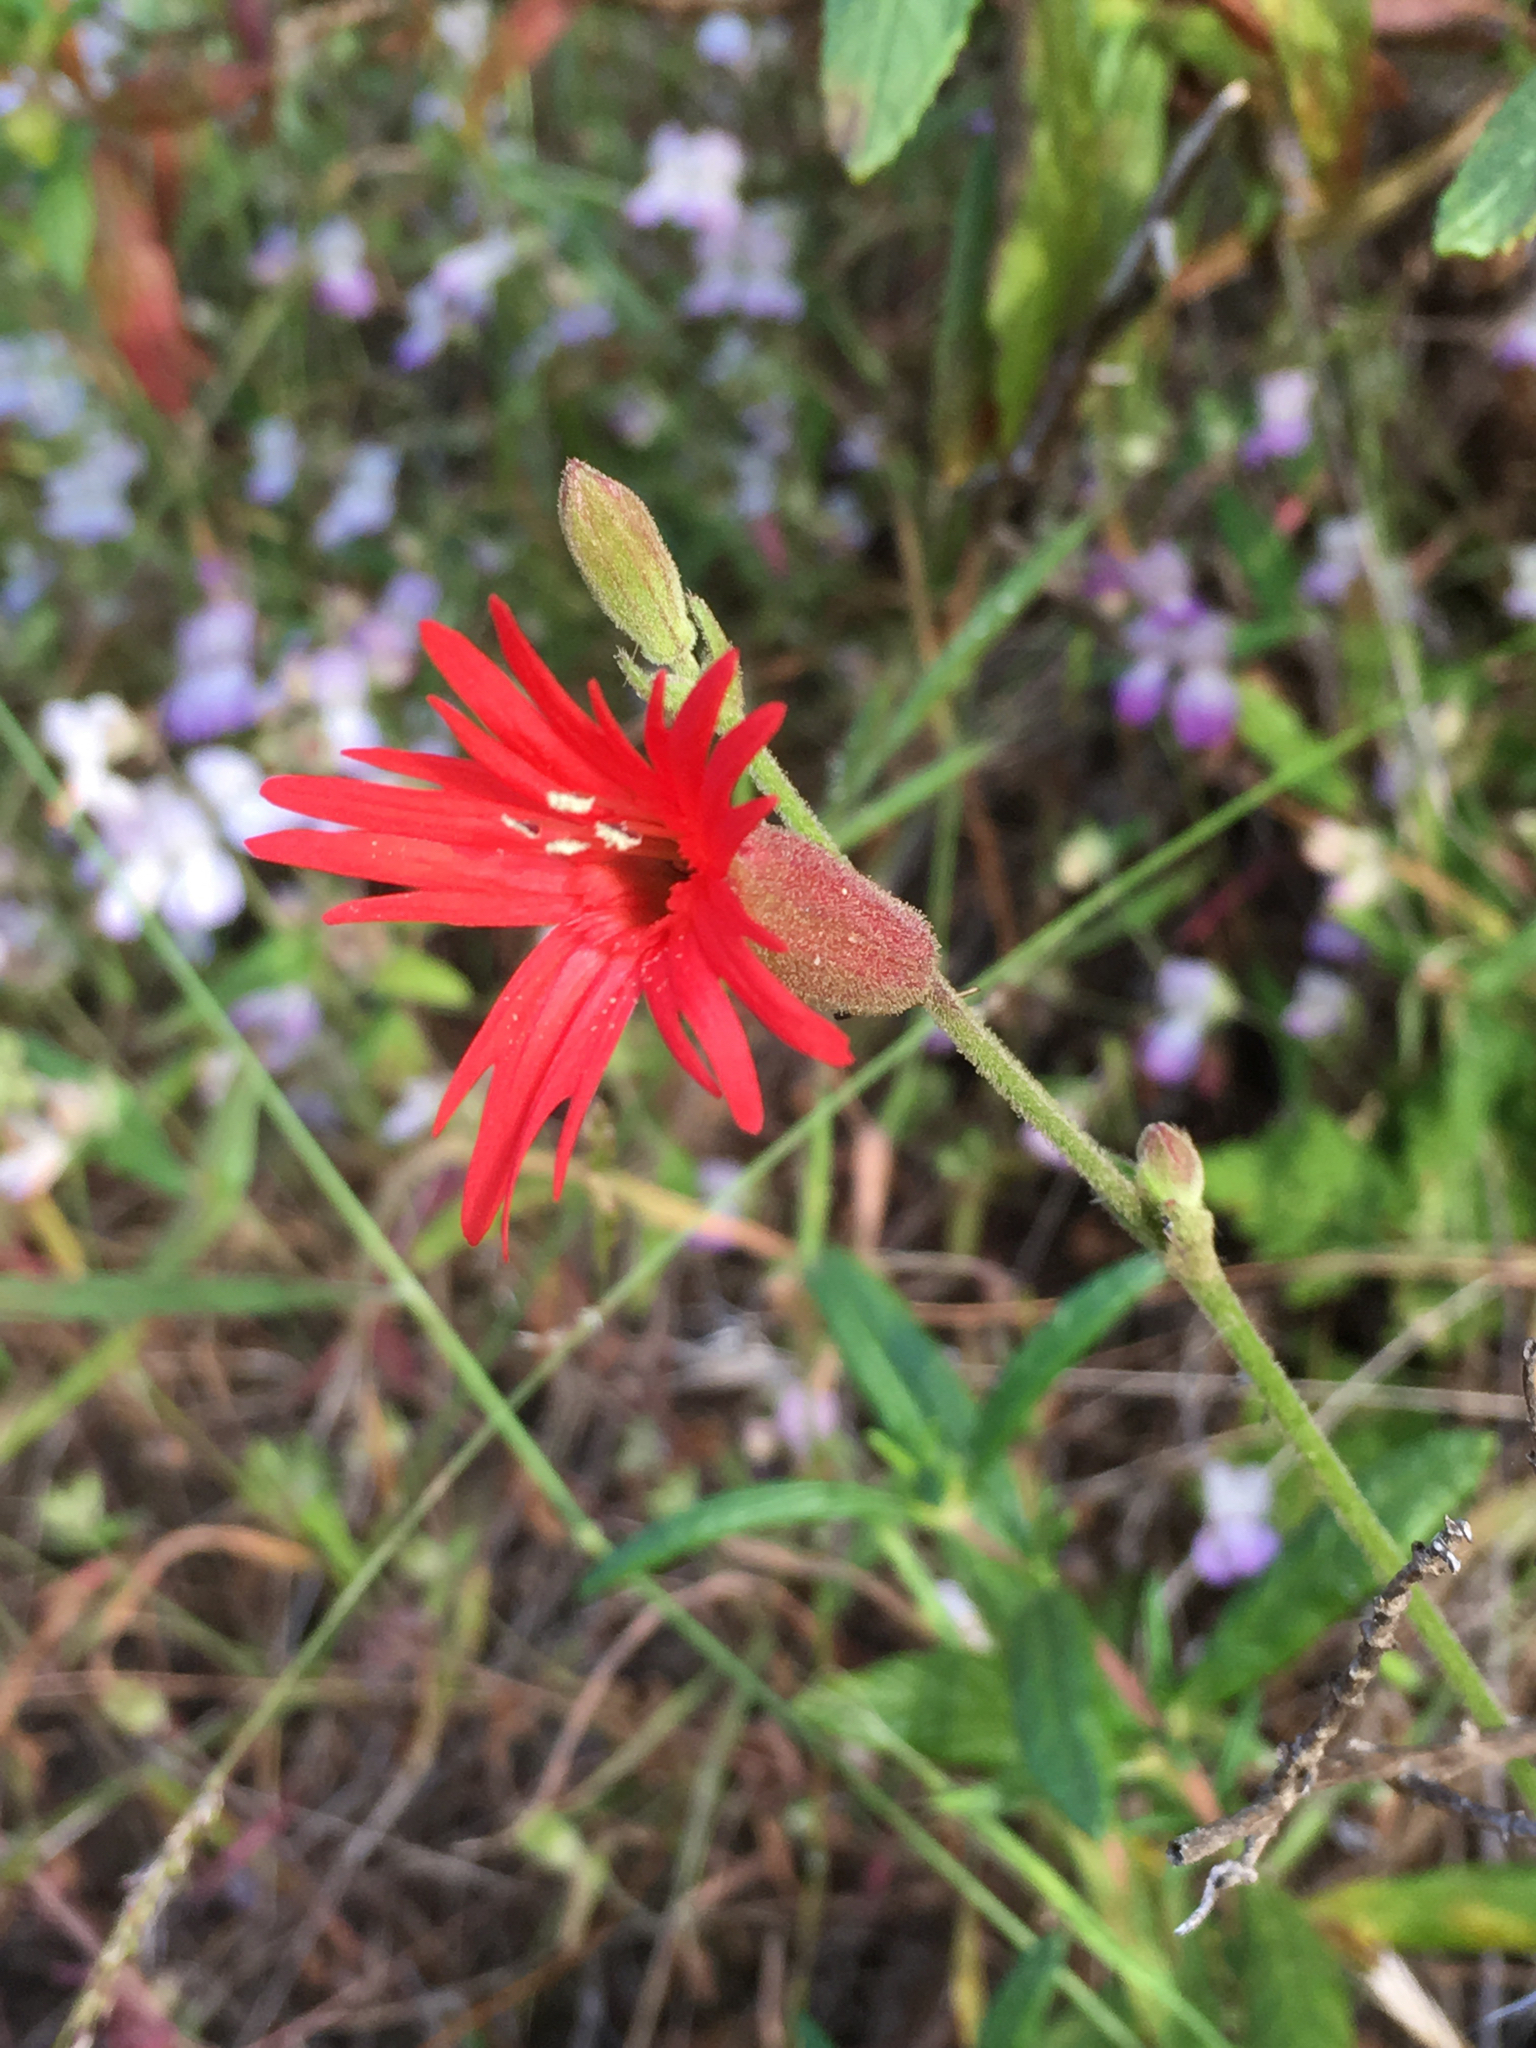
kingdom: Plantae
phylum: Tracheophyta
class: Magnoliopsida
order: Caryophyllales
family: Caryophyllaceae
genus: Silene
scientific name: Silene laciniata
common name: Indian-pink
